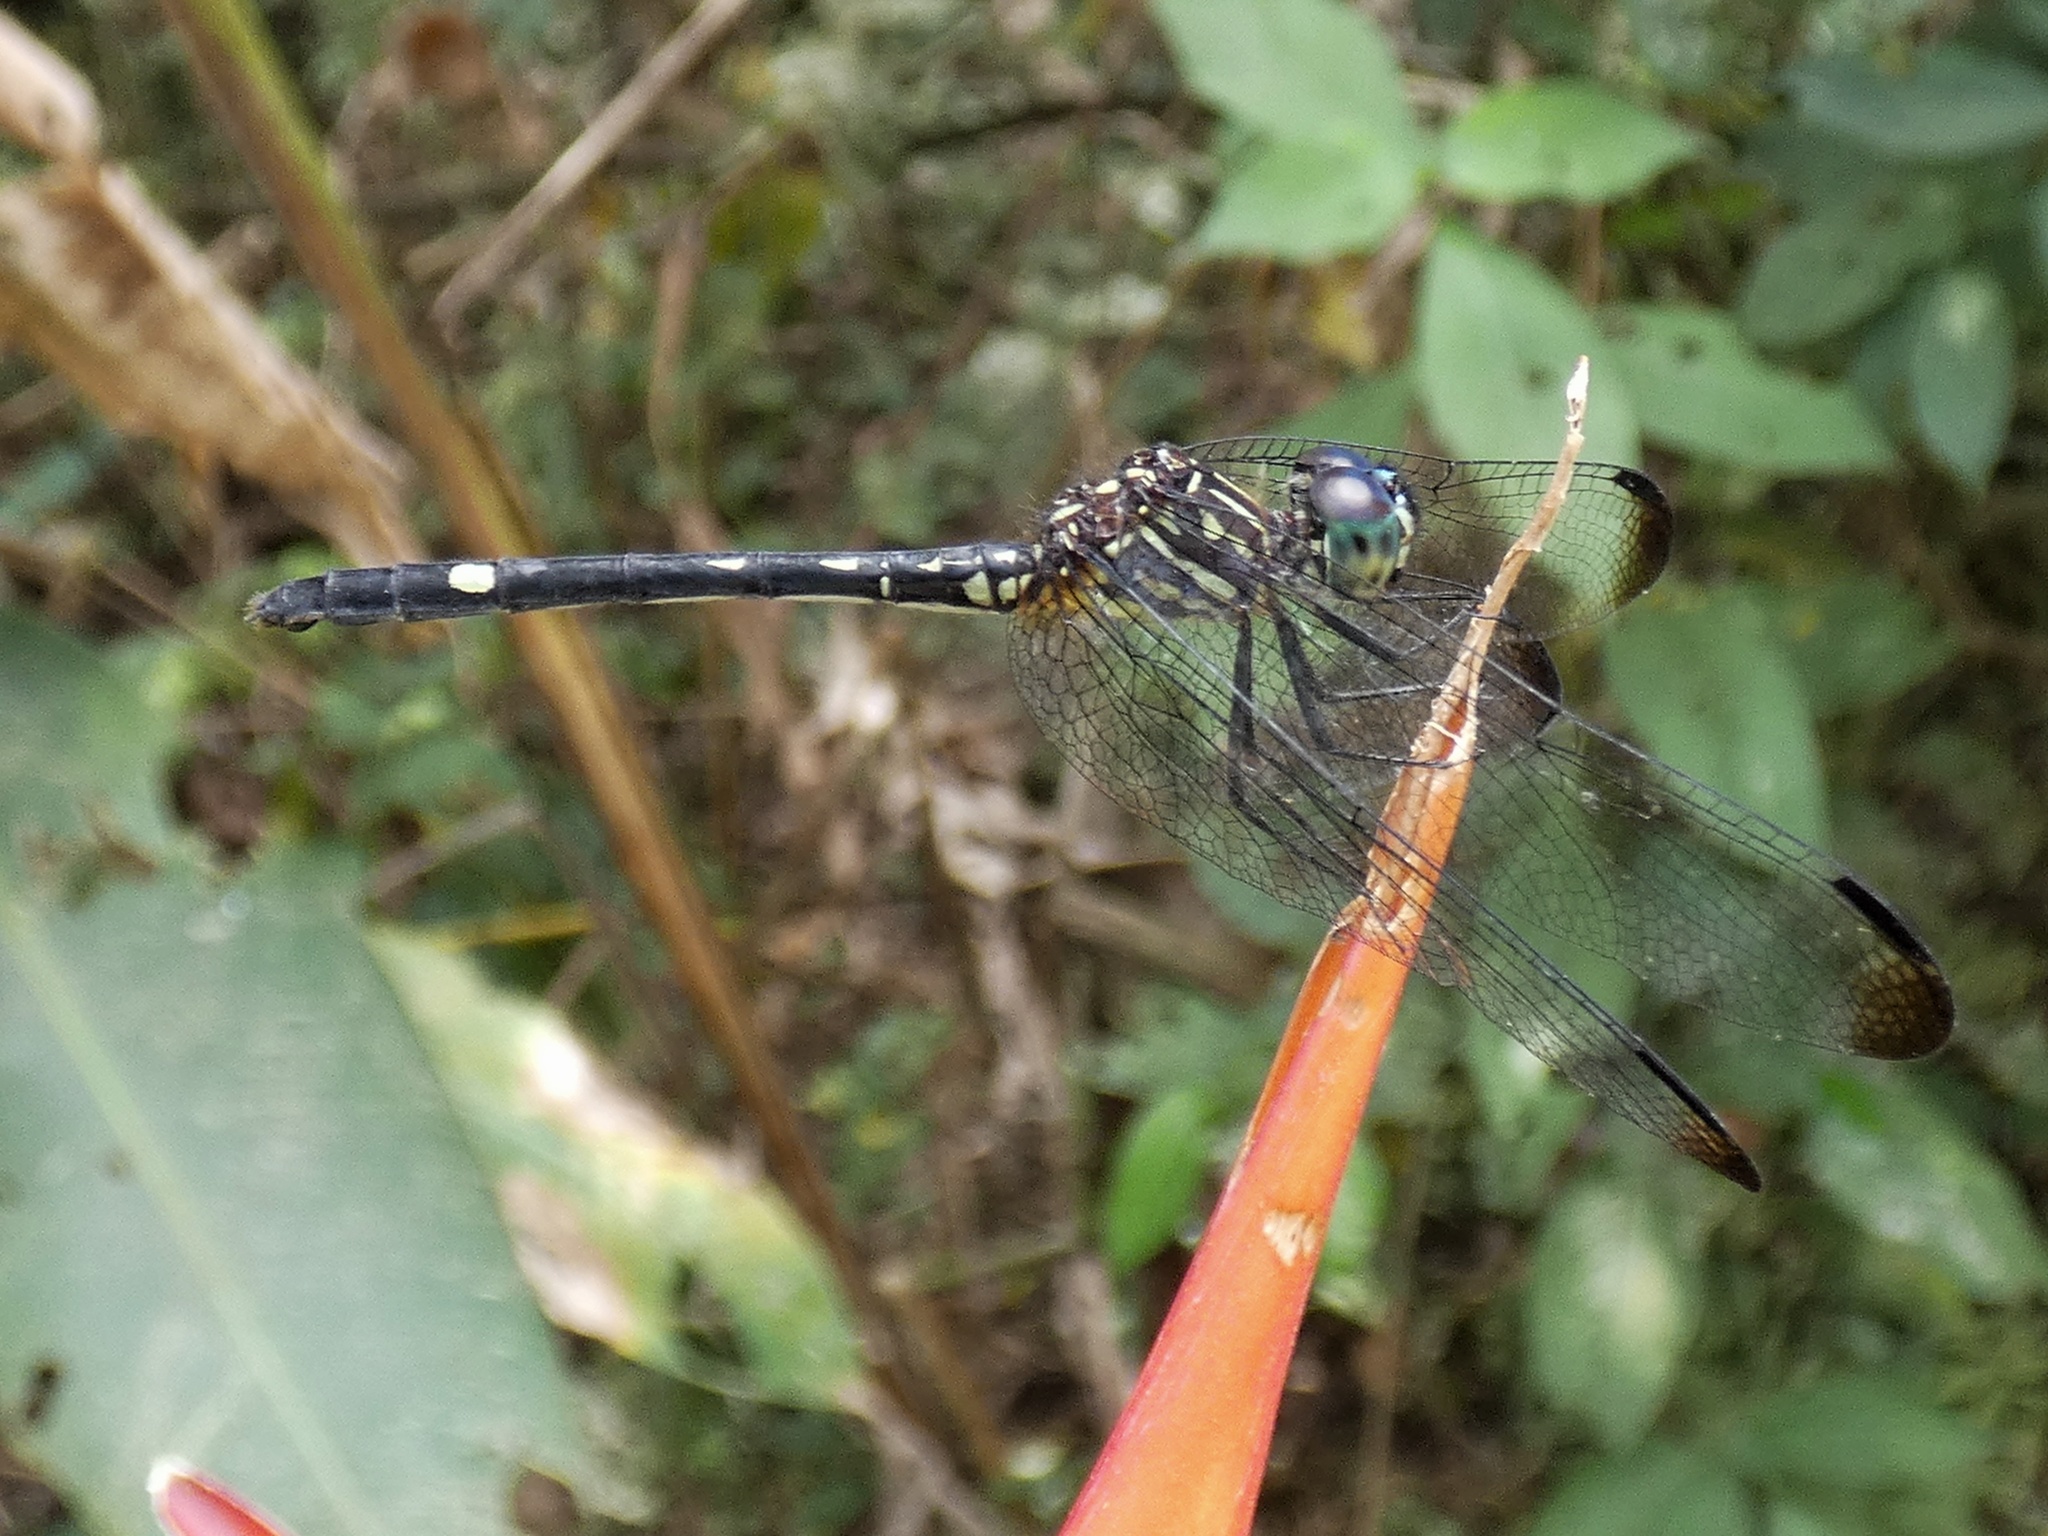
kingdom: Animalia
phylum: Arthropoda
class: Insecta
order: Odonata
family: Libellulidae
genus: Dythemis
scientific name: Dythemis nigra
